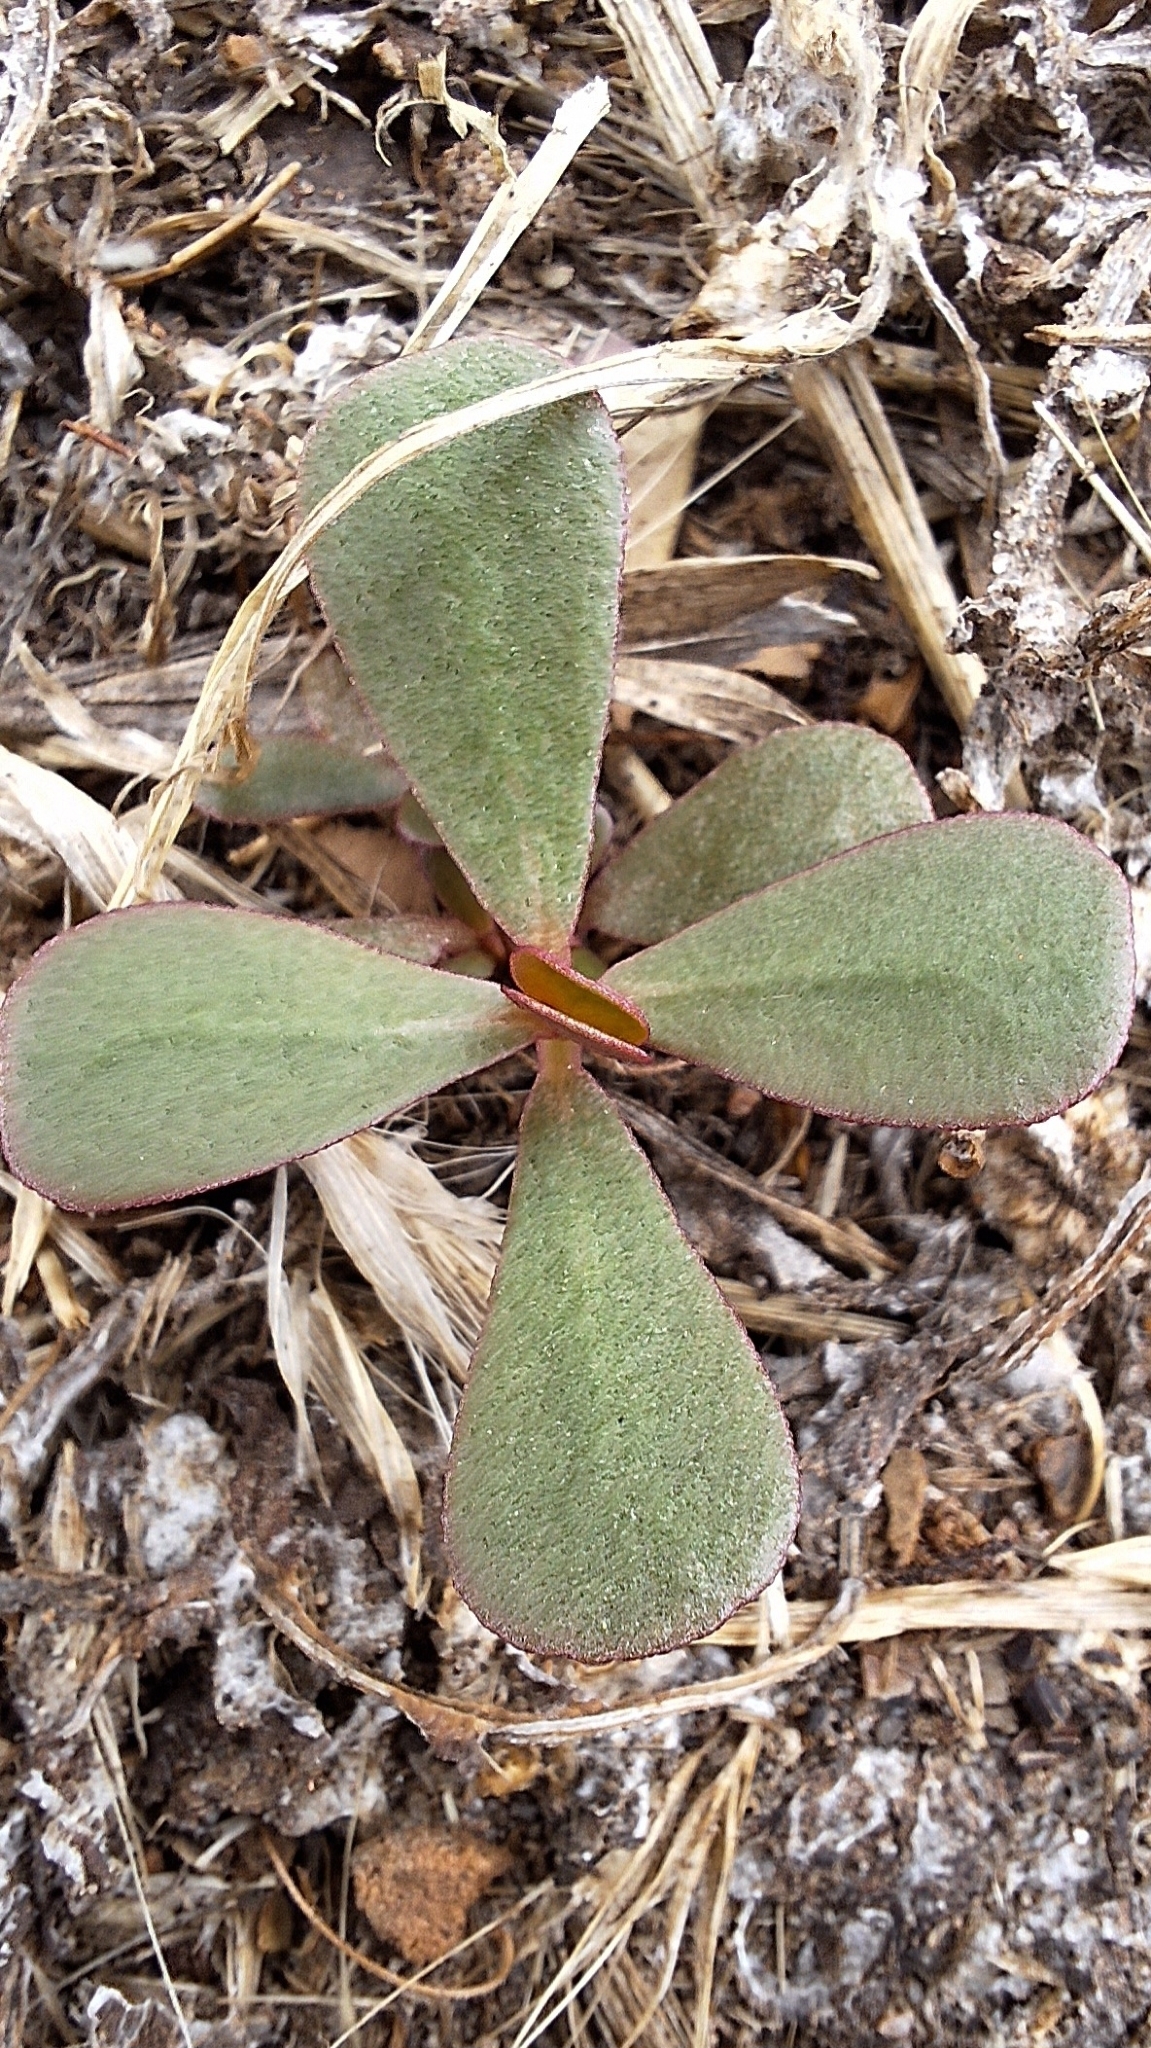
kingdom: Plantae
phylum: Tracheophyta
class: Magnoliopsida
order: Caryophyllales
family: Portulacaceae
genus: Portulaca
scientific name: Portulaca oleracea
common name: Common purslane
